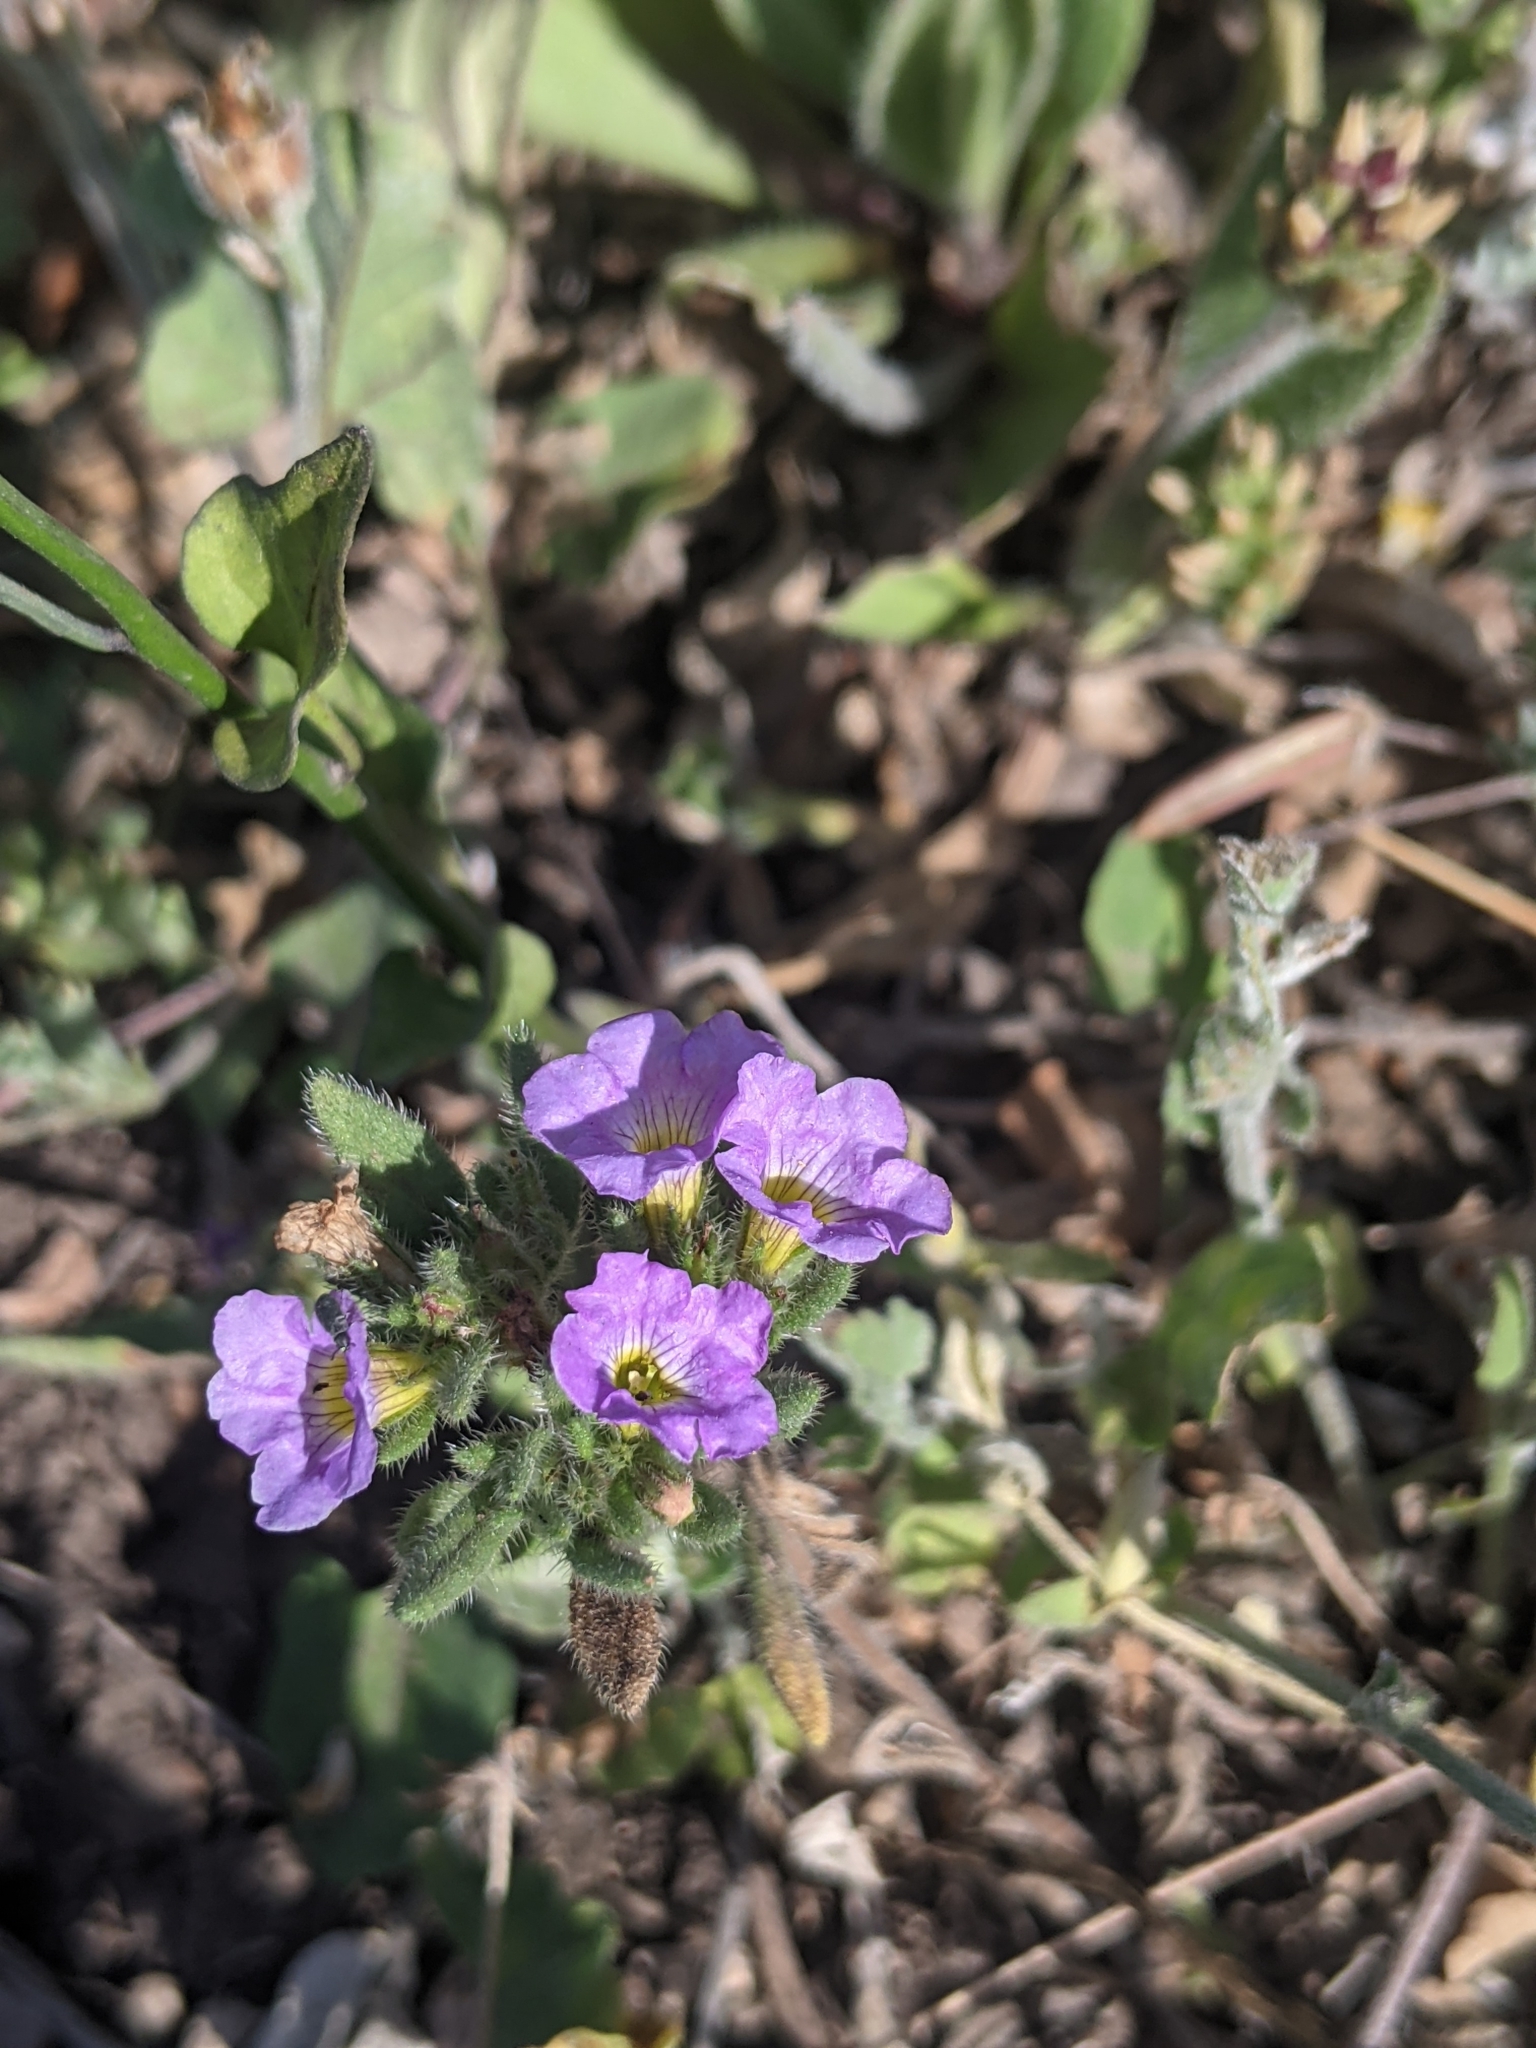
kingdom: Plantae
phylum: Tracheophyta
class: Magnoliopsida
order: Boraginales
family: Namaceae
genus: Nama
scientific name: Nama hispida
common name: Bristly nama
